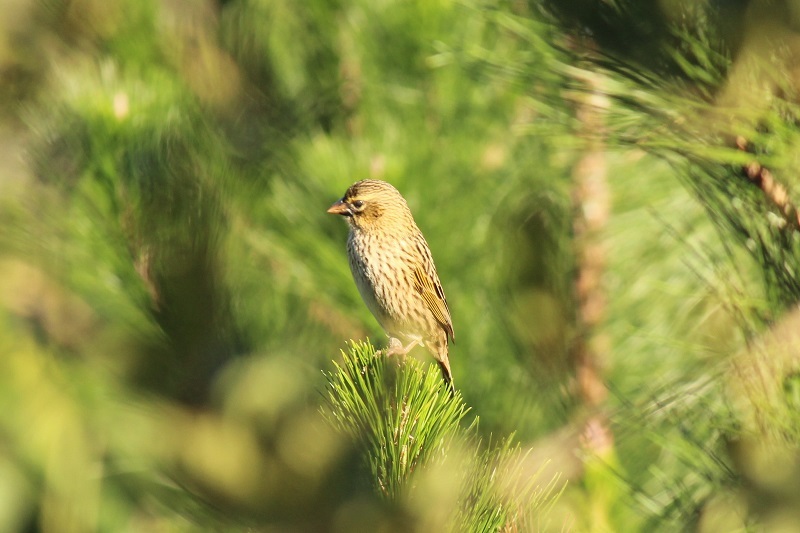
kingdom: Animalia
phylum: Chordata
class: Aves
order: Passeriformes
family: Ploceidae
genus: Euplectes
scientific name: Euplectes capensis
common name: Yellow bishop
